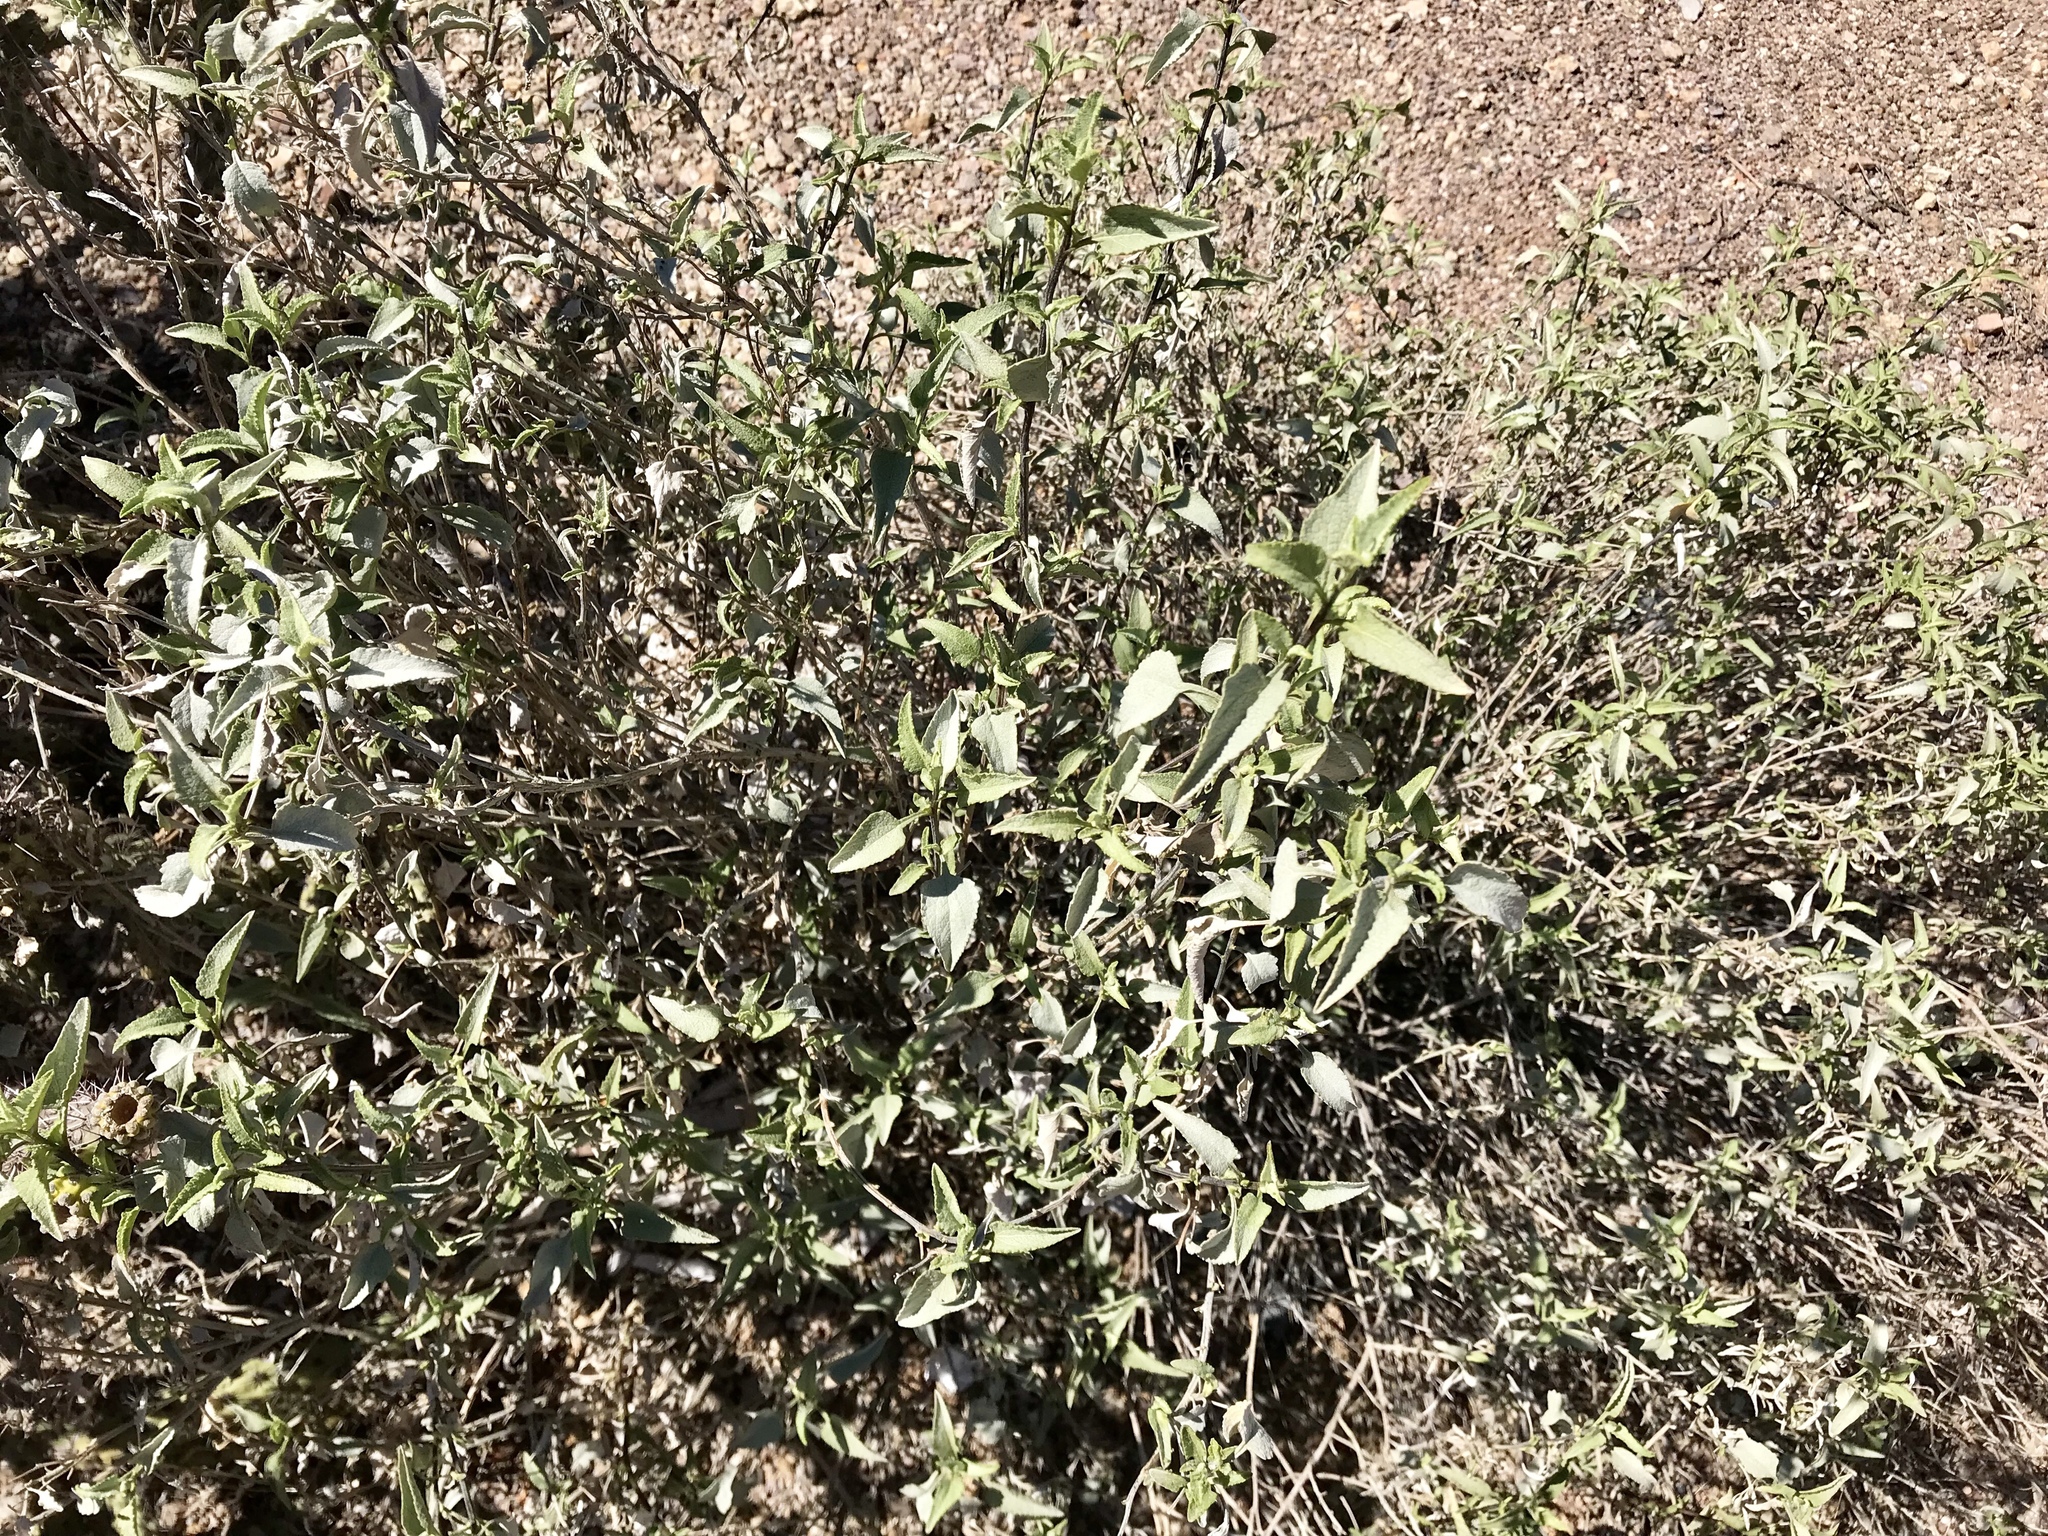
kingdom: Plantae
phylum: Tracheophyta
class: Magnoliopsida
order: Asterales
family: Asteraceae
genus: Ambrosia
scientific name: Ambrosia deltoidea
